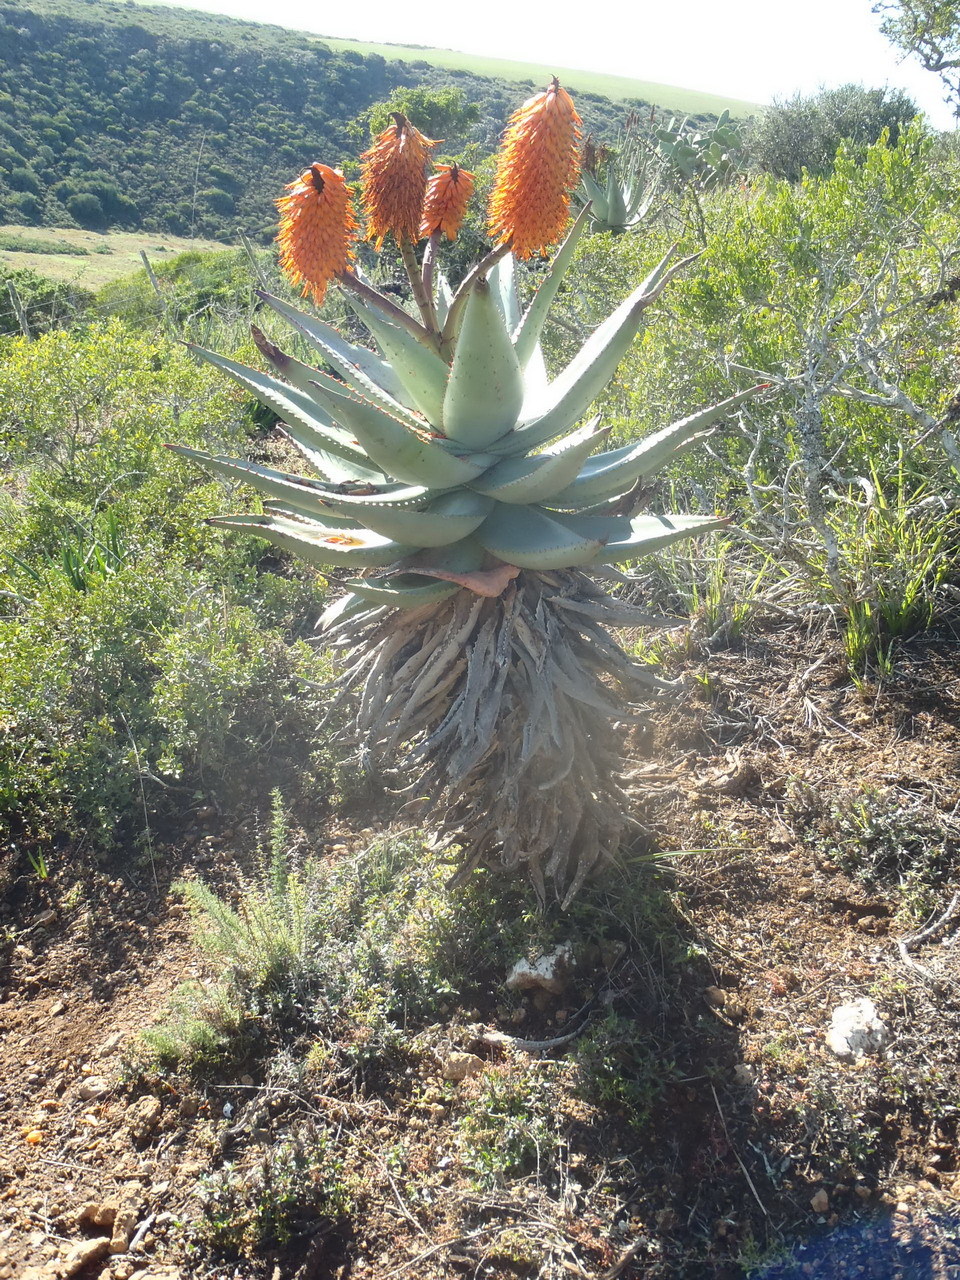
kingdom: Plantae
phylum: Tracheophyta
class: Liliopsida
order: Asparagales
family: Asphodelaceae
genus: Aloe
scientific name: Aloe ferox
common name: Bitter aloe
